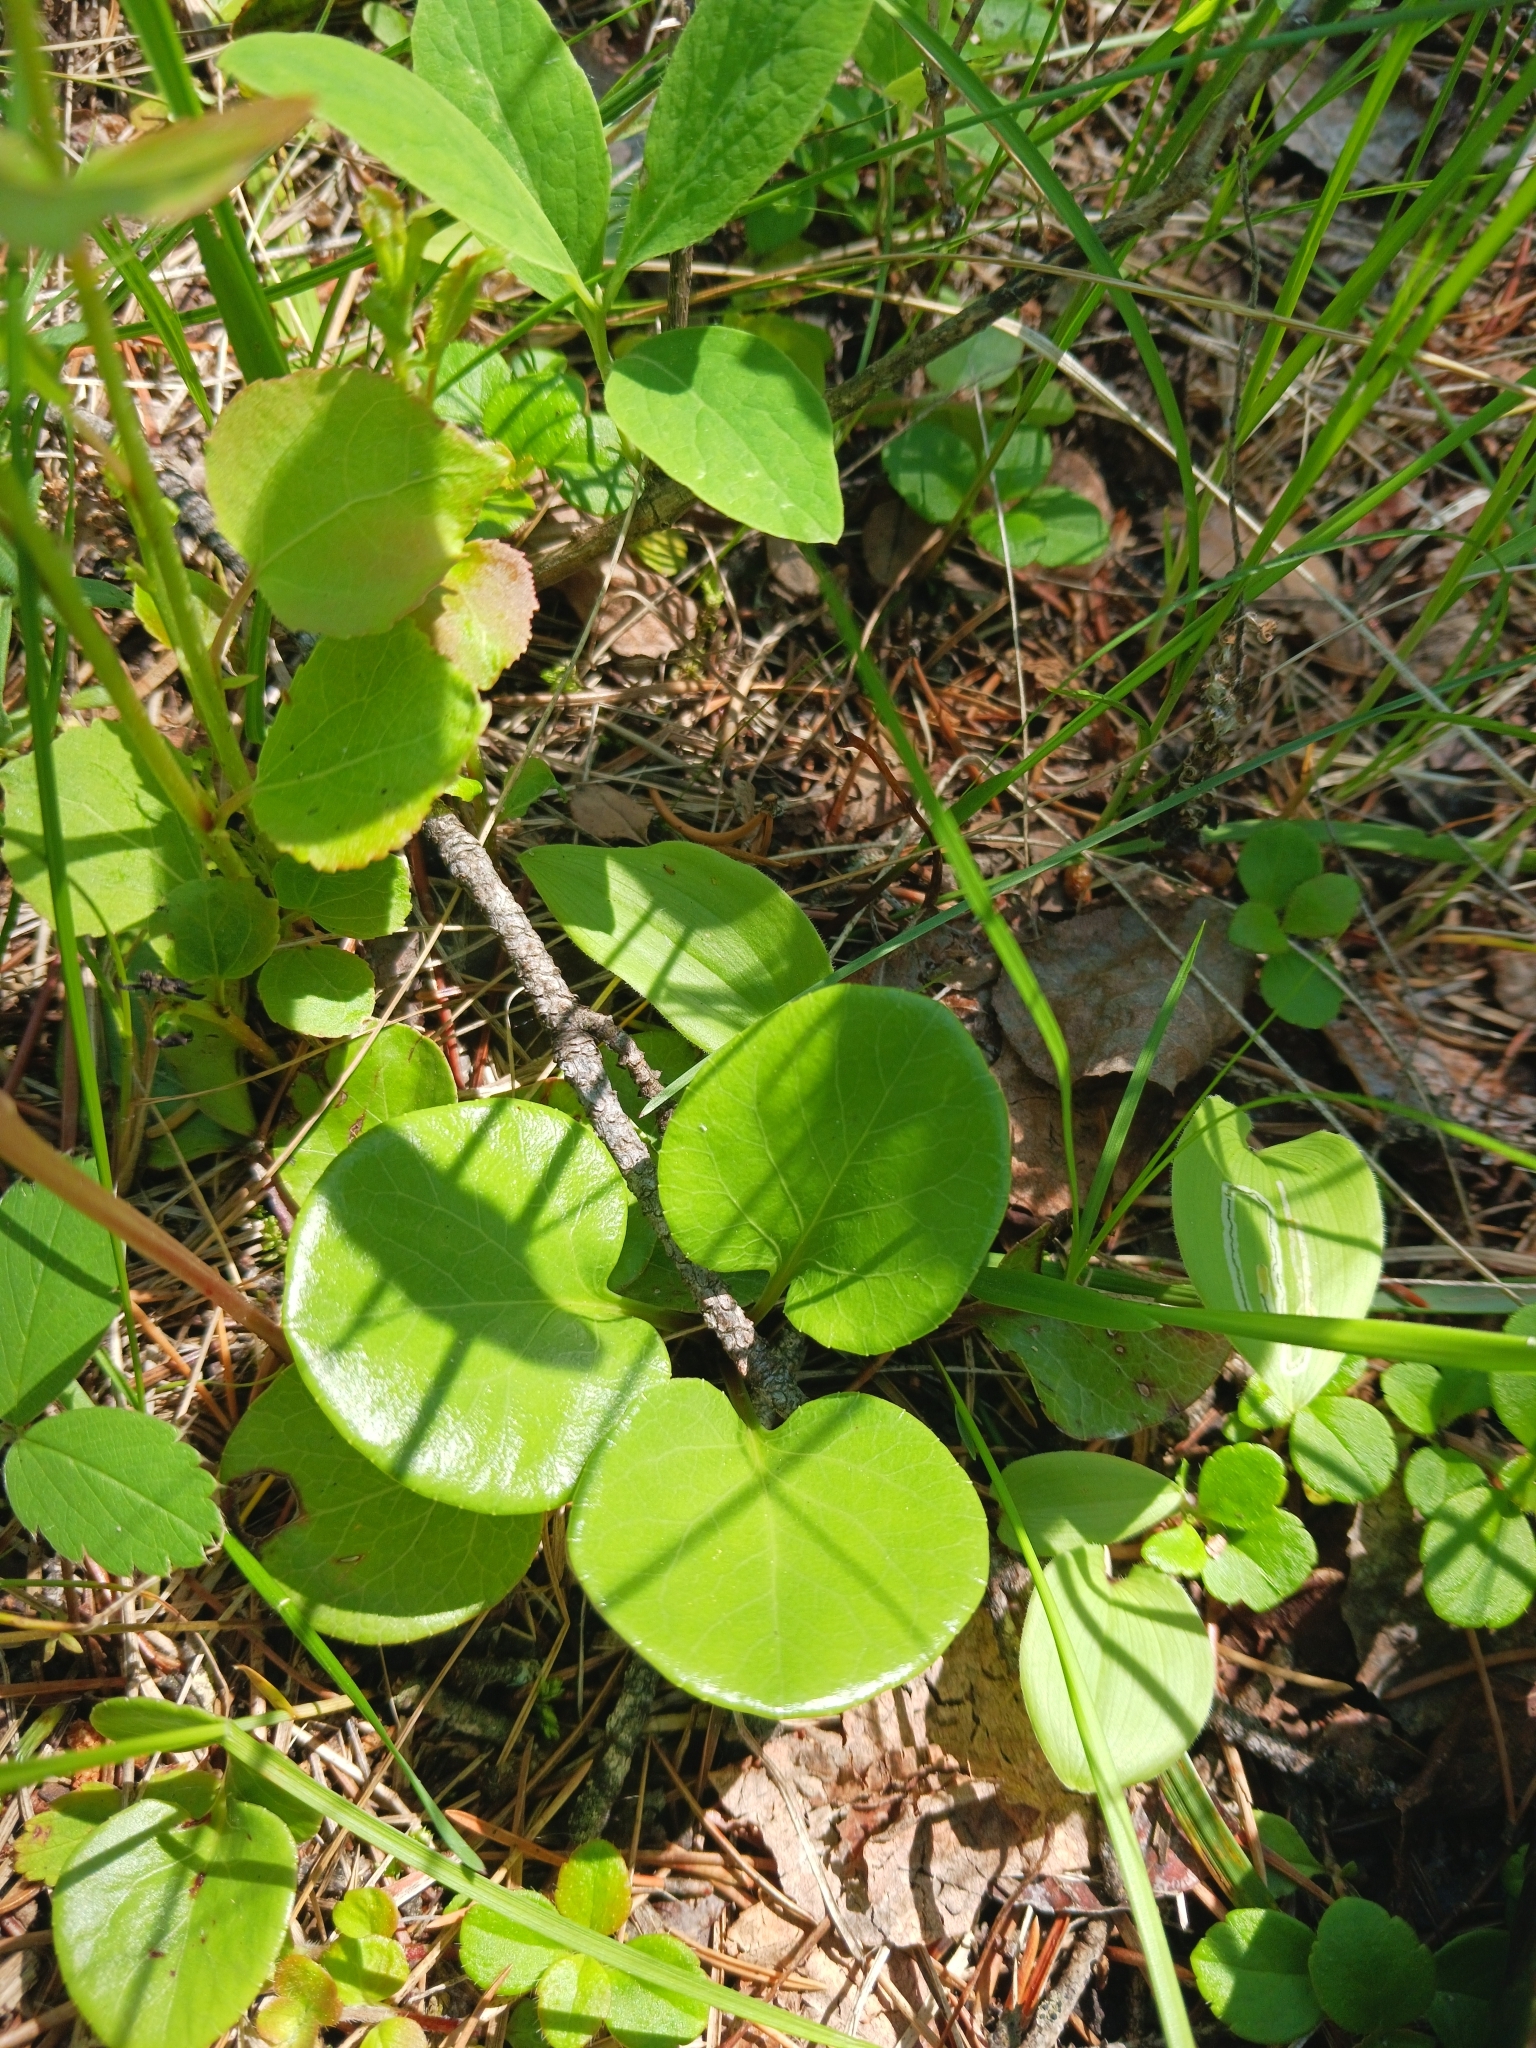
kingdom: Plantae
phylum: Tracheophyta
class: Magnoliopsida
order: Ericales
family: Ericaceae
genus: Pyrola
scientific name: Pyrola asarifolia
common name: Bog wintergreen
